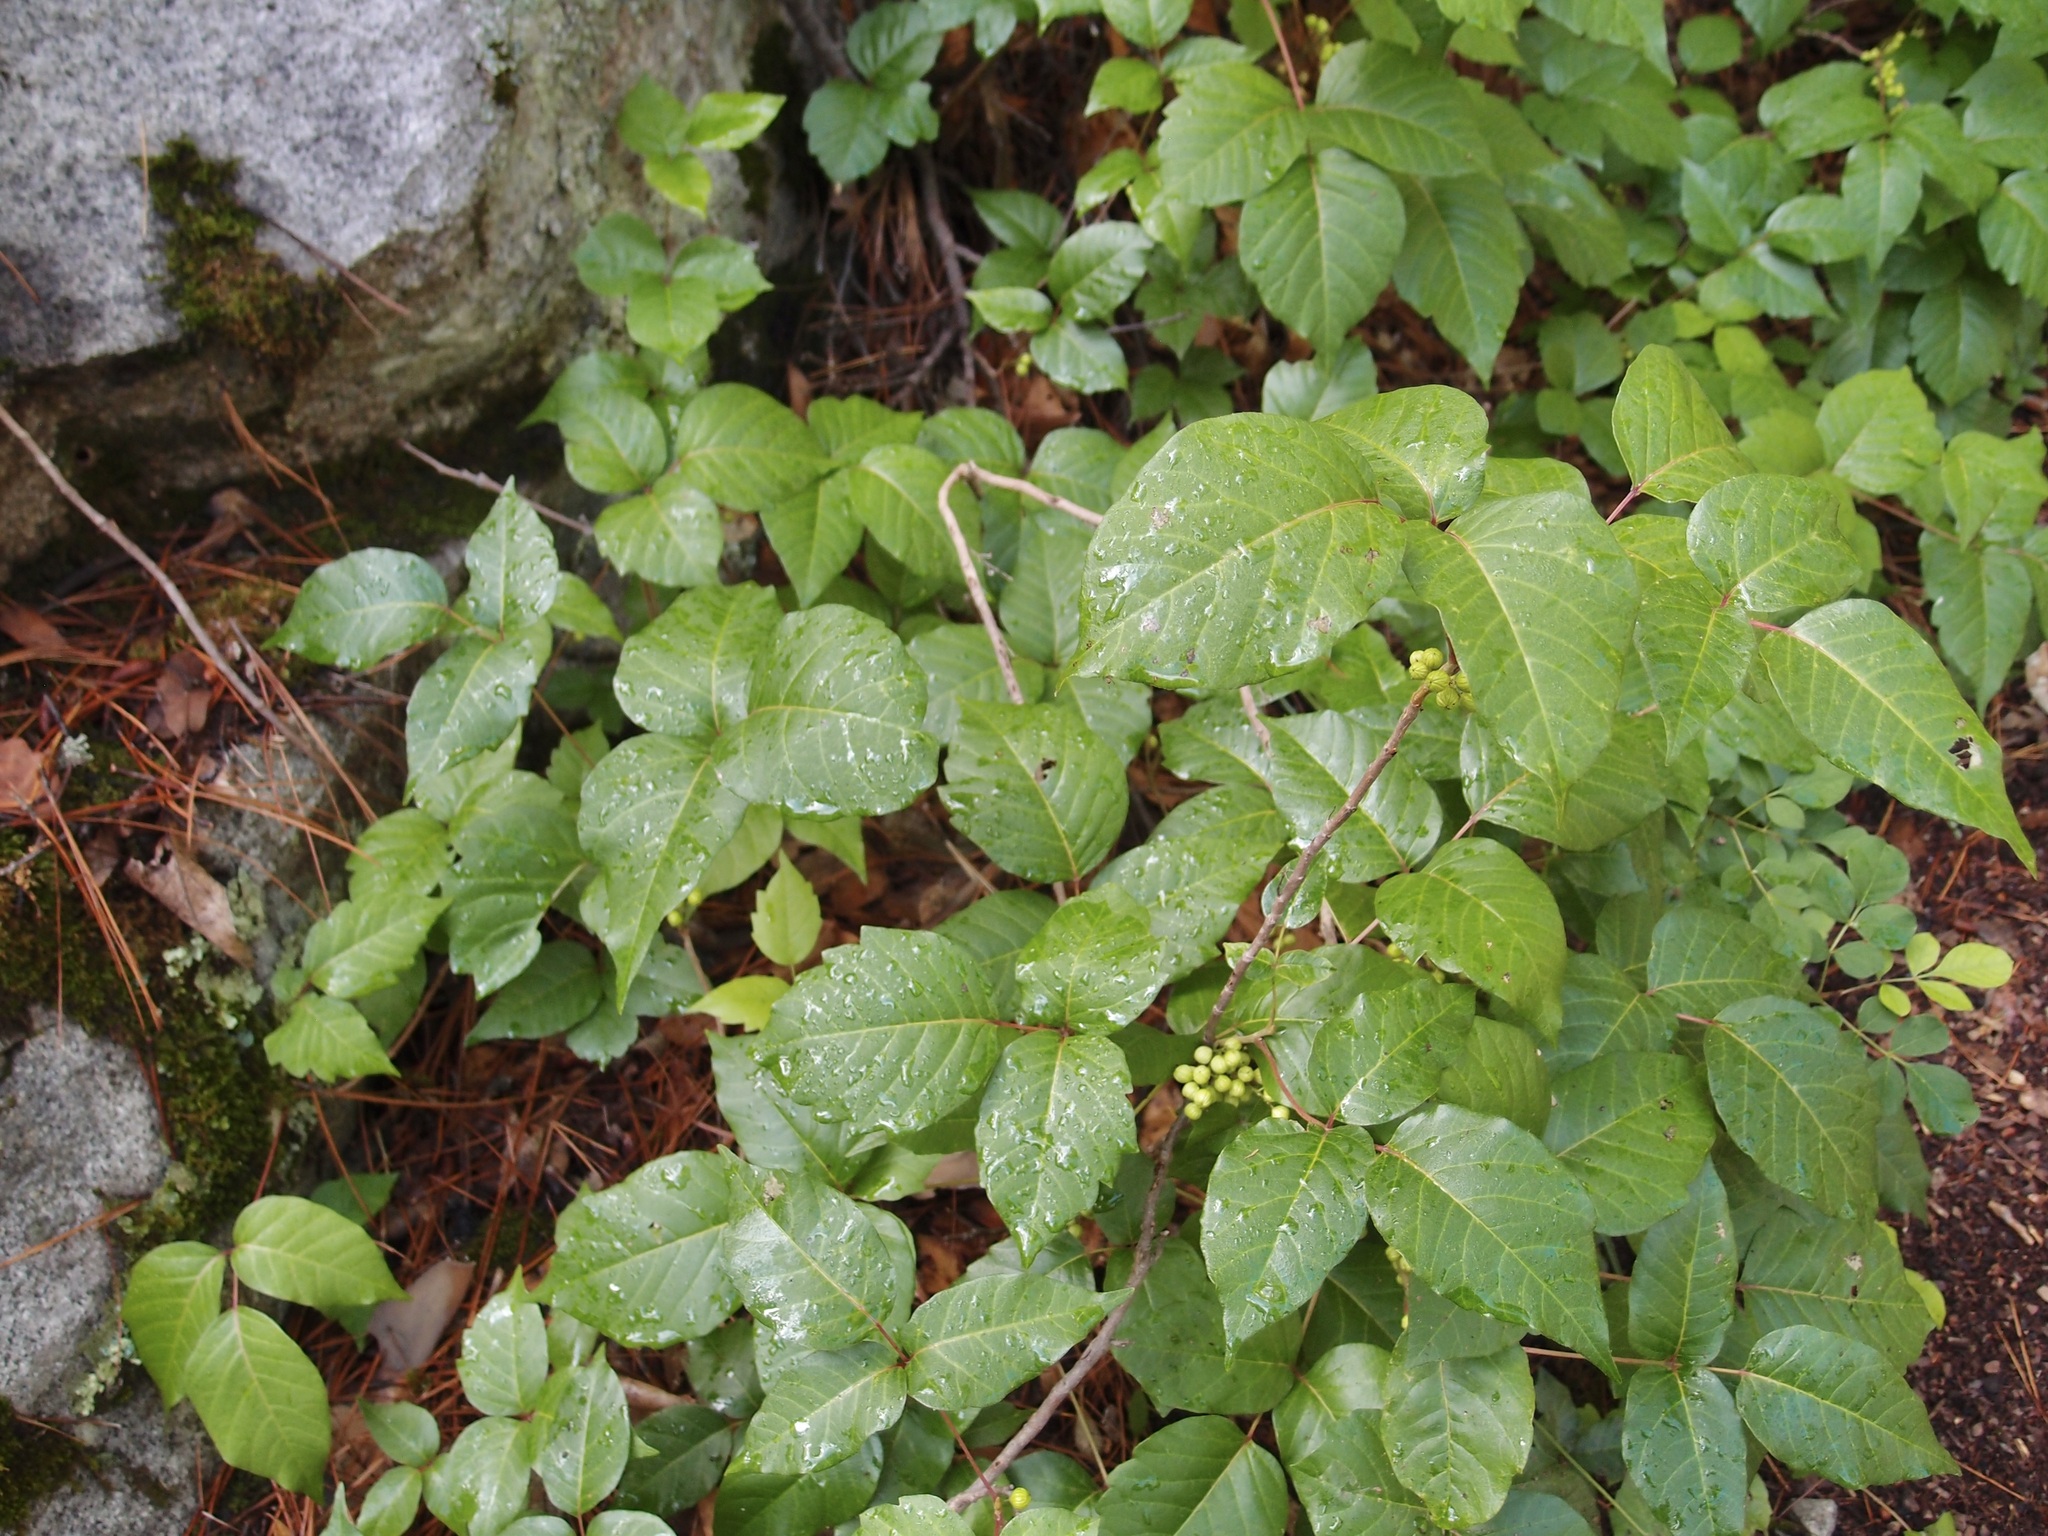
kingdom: Plantae
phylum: Tracheophyta
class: Magnoliopsida
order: Sapindales
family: Anacardiaceae
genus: Toxicodendron
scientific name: Toxicodendron radicans
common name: Poison ivy
